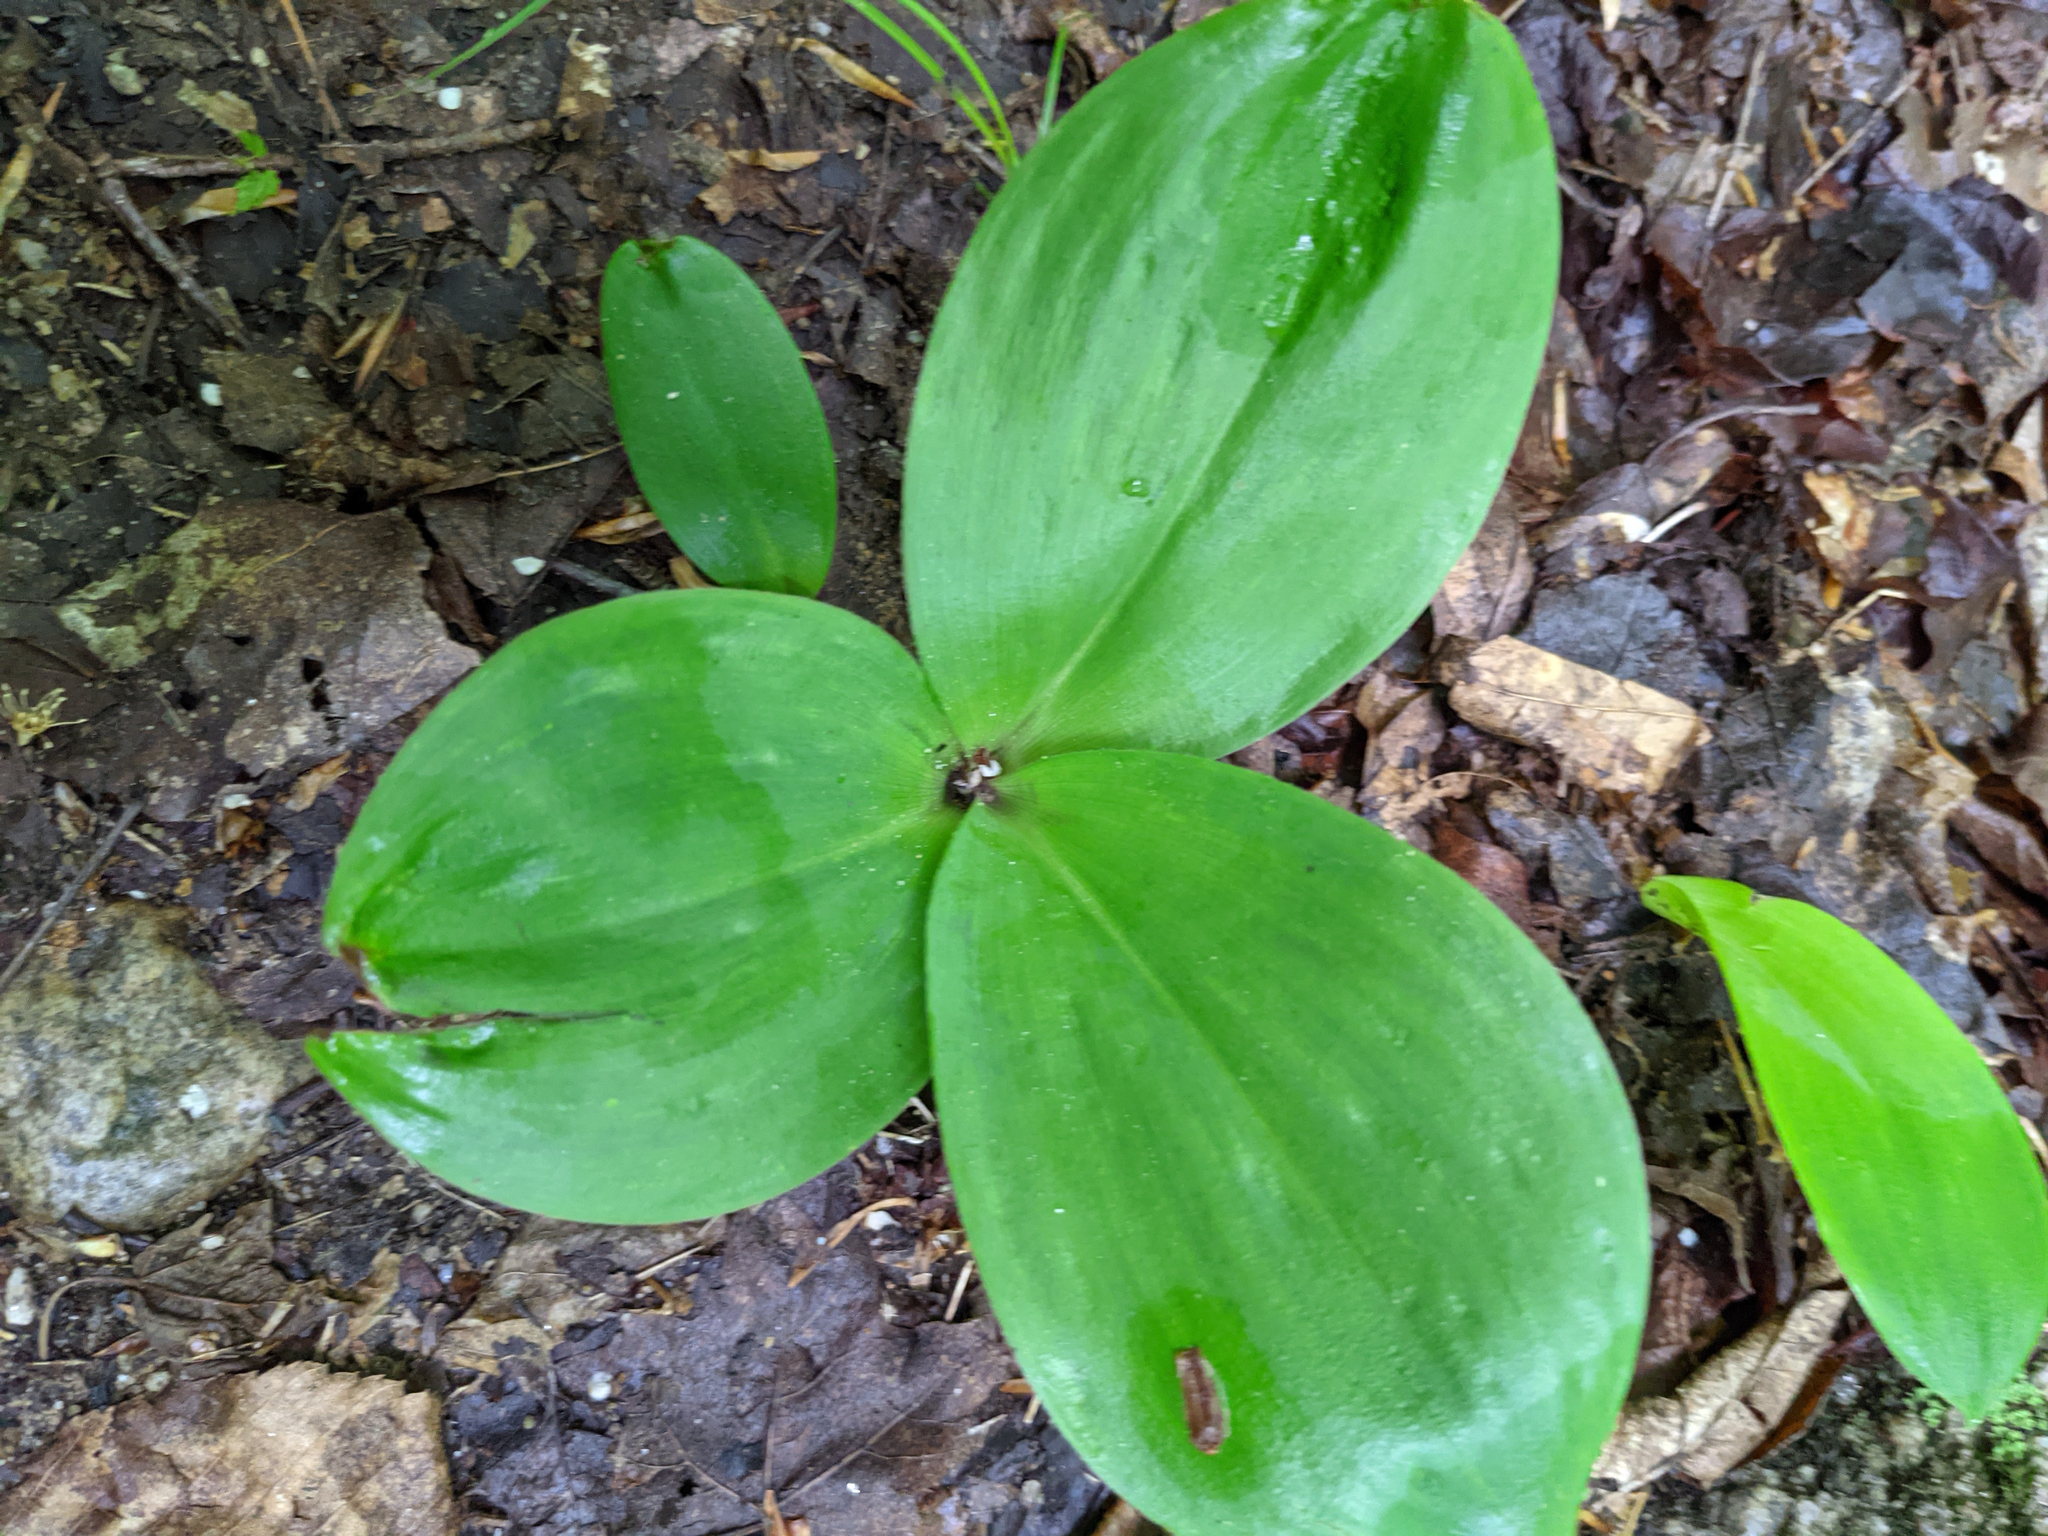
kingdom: Plantae
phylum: Tracheophyta
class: Liliopsida
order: Liliales
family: Liliaceae
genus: Clintonia
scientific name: Clintonia borealis
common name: Yellow clintonia
